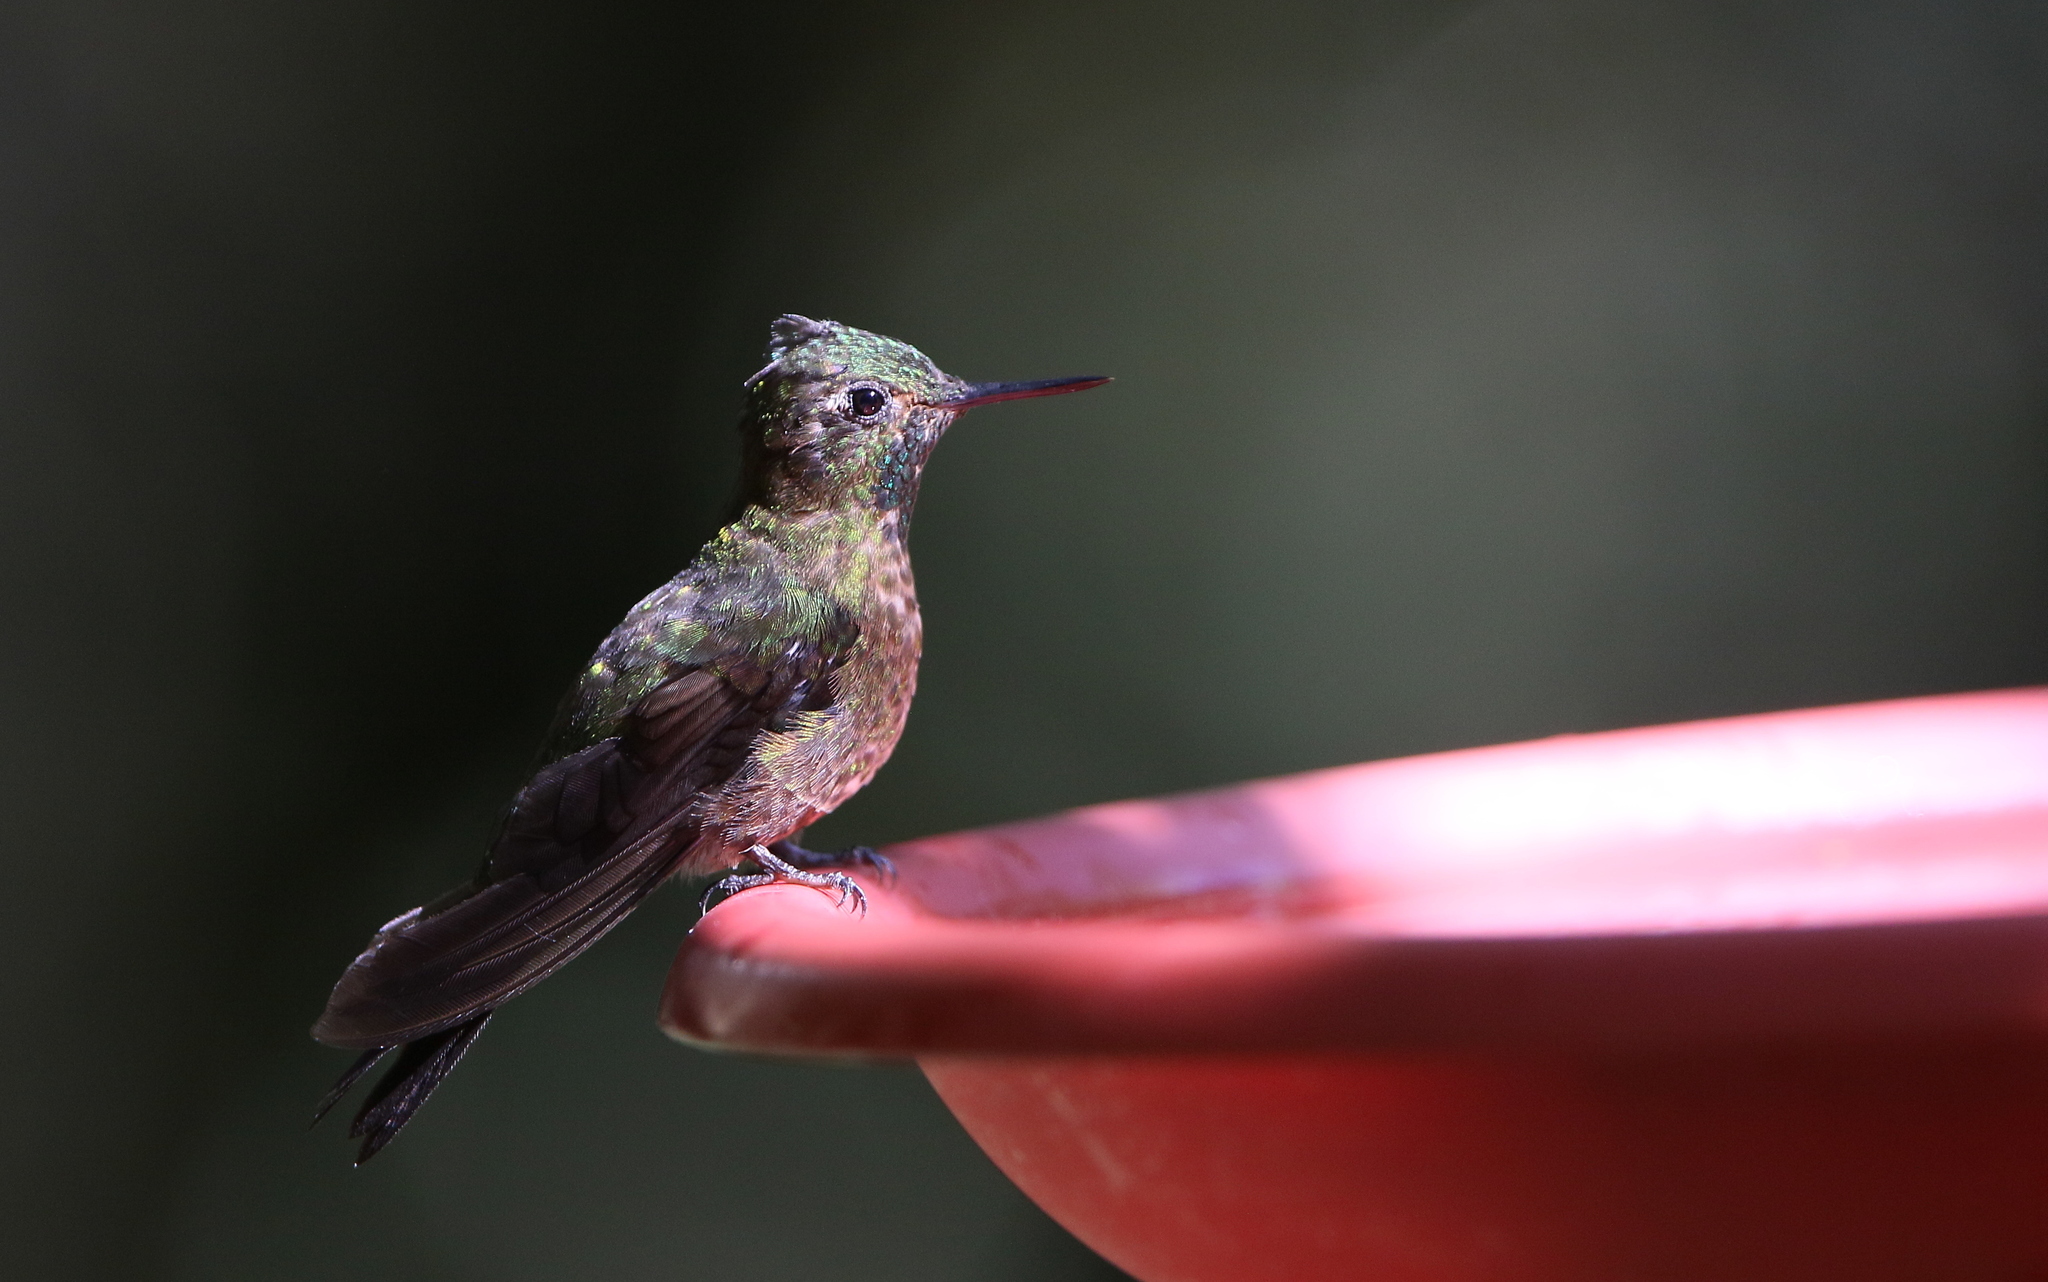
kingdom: Animalia
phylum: Chordata
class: Aves
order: Apodiformes
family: Trochilidae
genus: Metallura
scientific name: Metallura tyrianthina
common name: Tyrian metaltail
